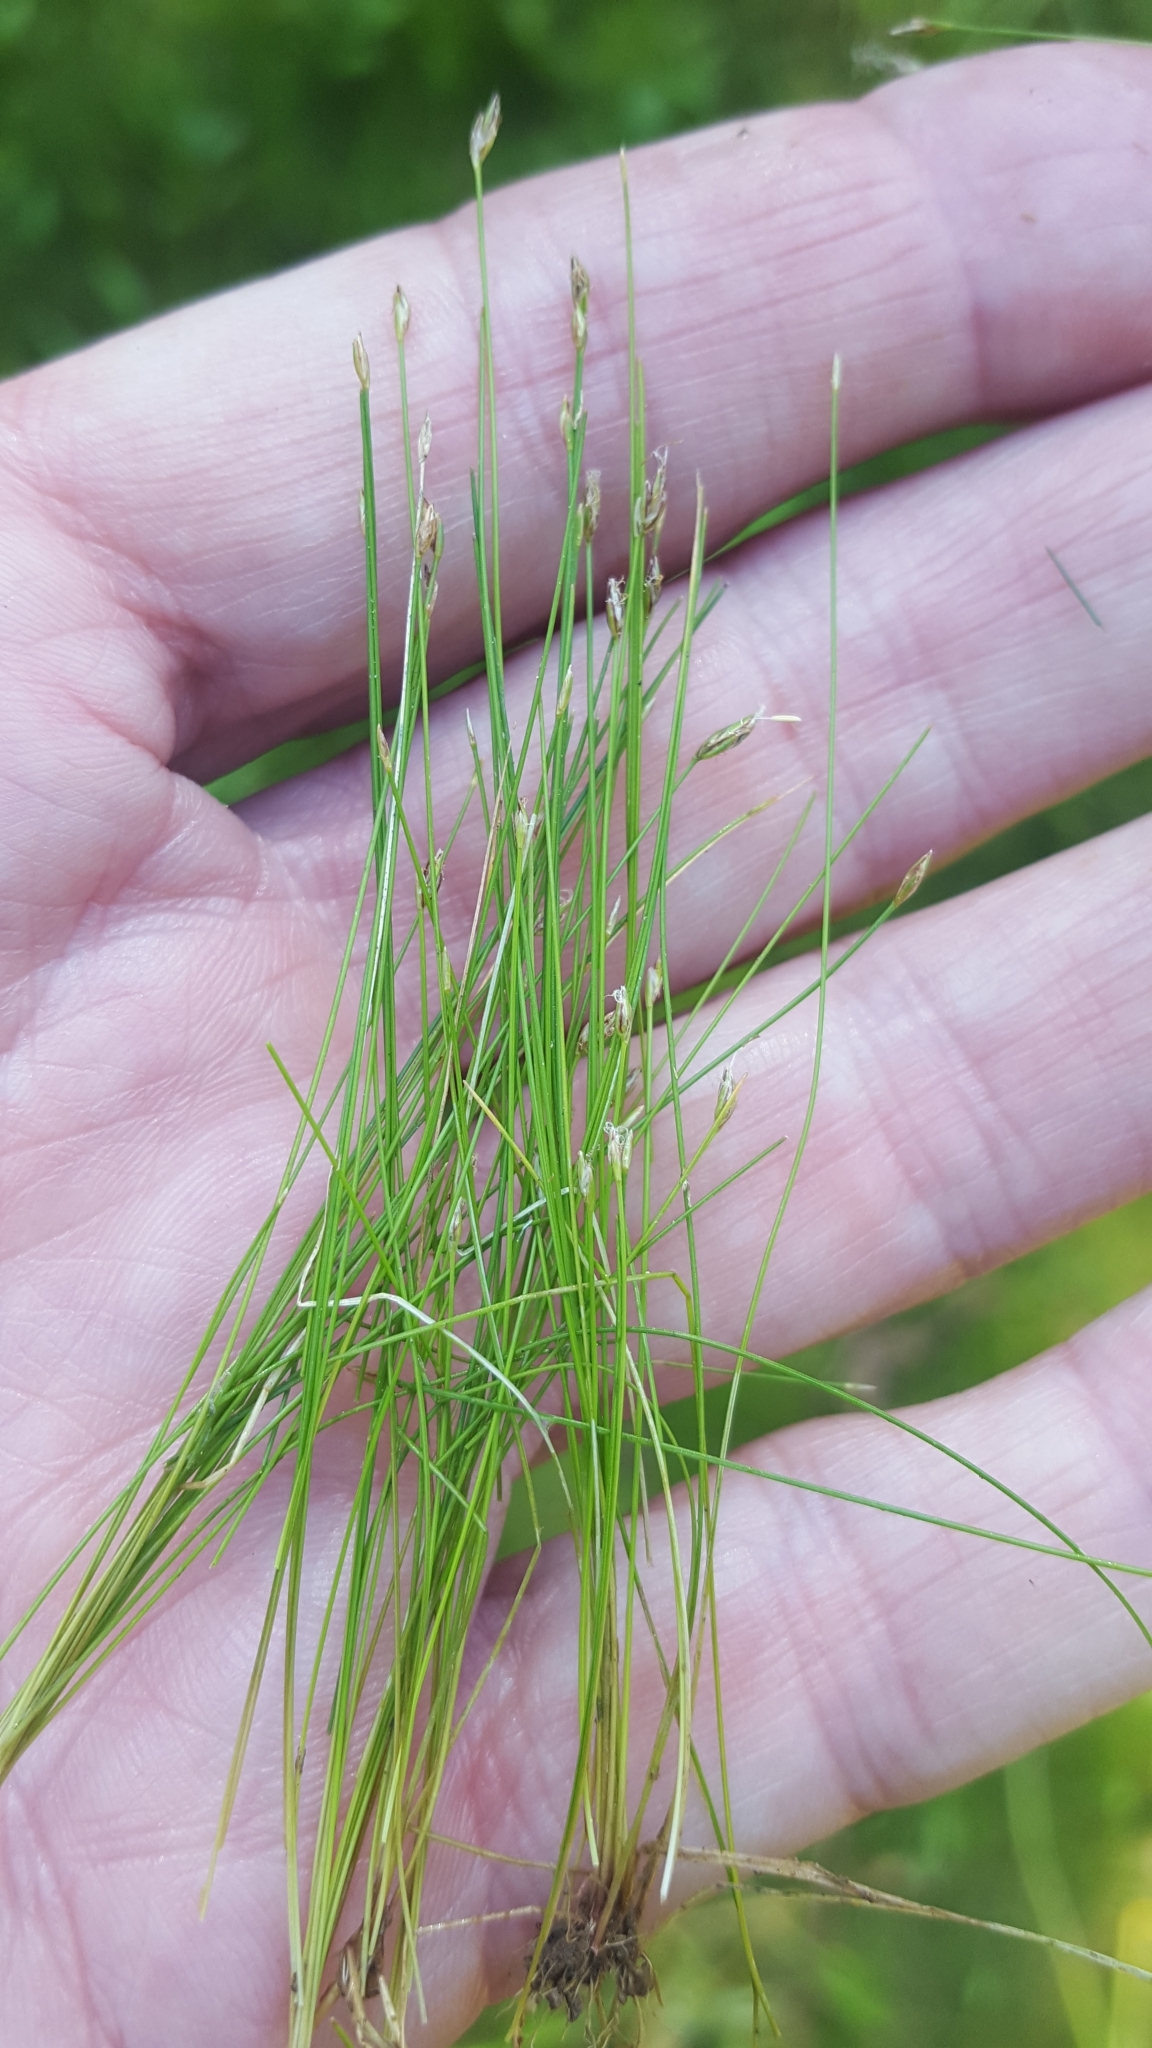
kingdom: Plantae
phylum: Tracheophyta
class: Liliopsida
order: Poales
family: Cyperaceae
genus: Eleocharis
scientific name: Eleocharis acicularis
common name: Needle spike-rush
